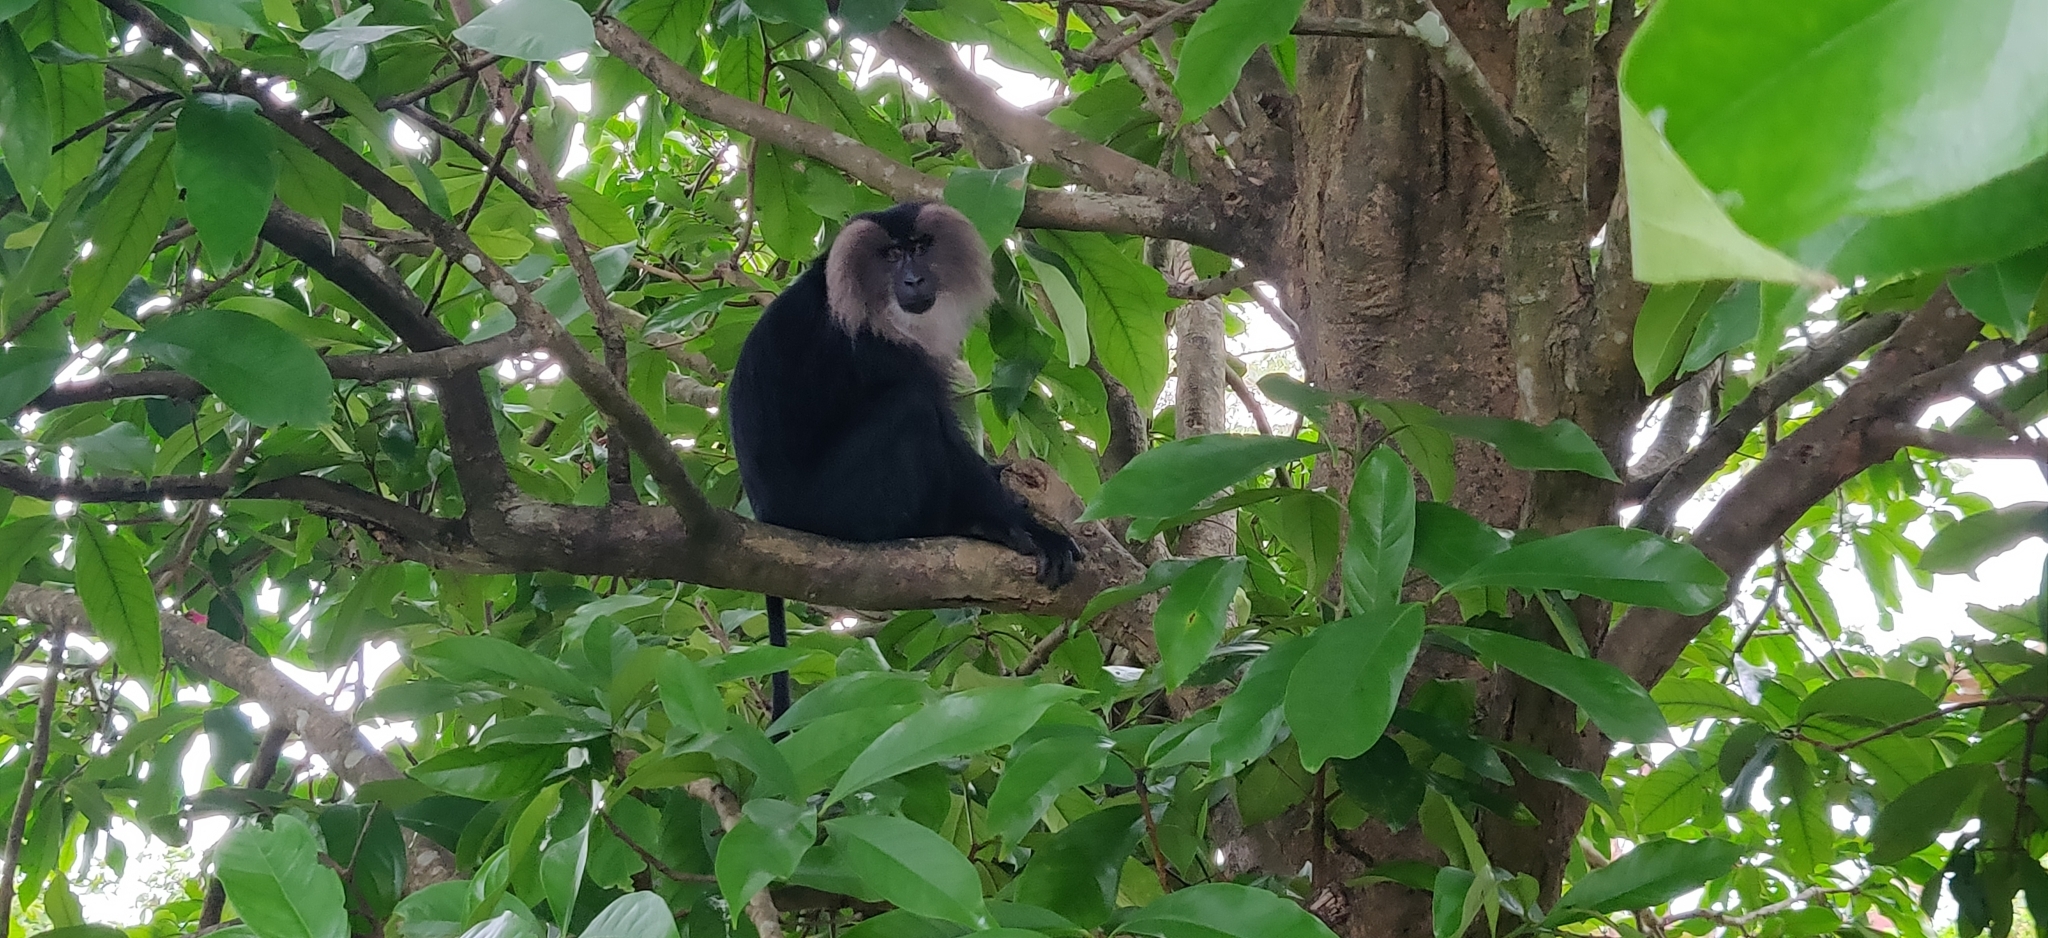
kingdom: Animalia
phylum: Chordata
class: Mammalia
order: Primates
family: Cercopithecidae
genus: Macaca
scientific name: Macaca silenus
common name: Lion-tailed macaque
